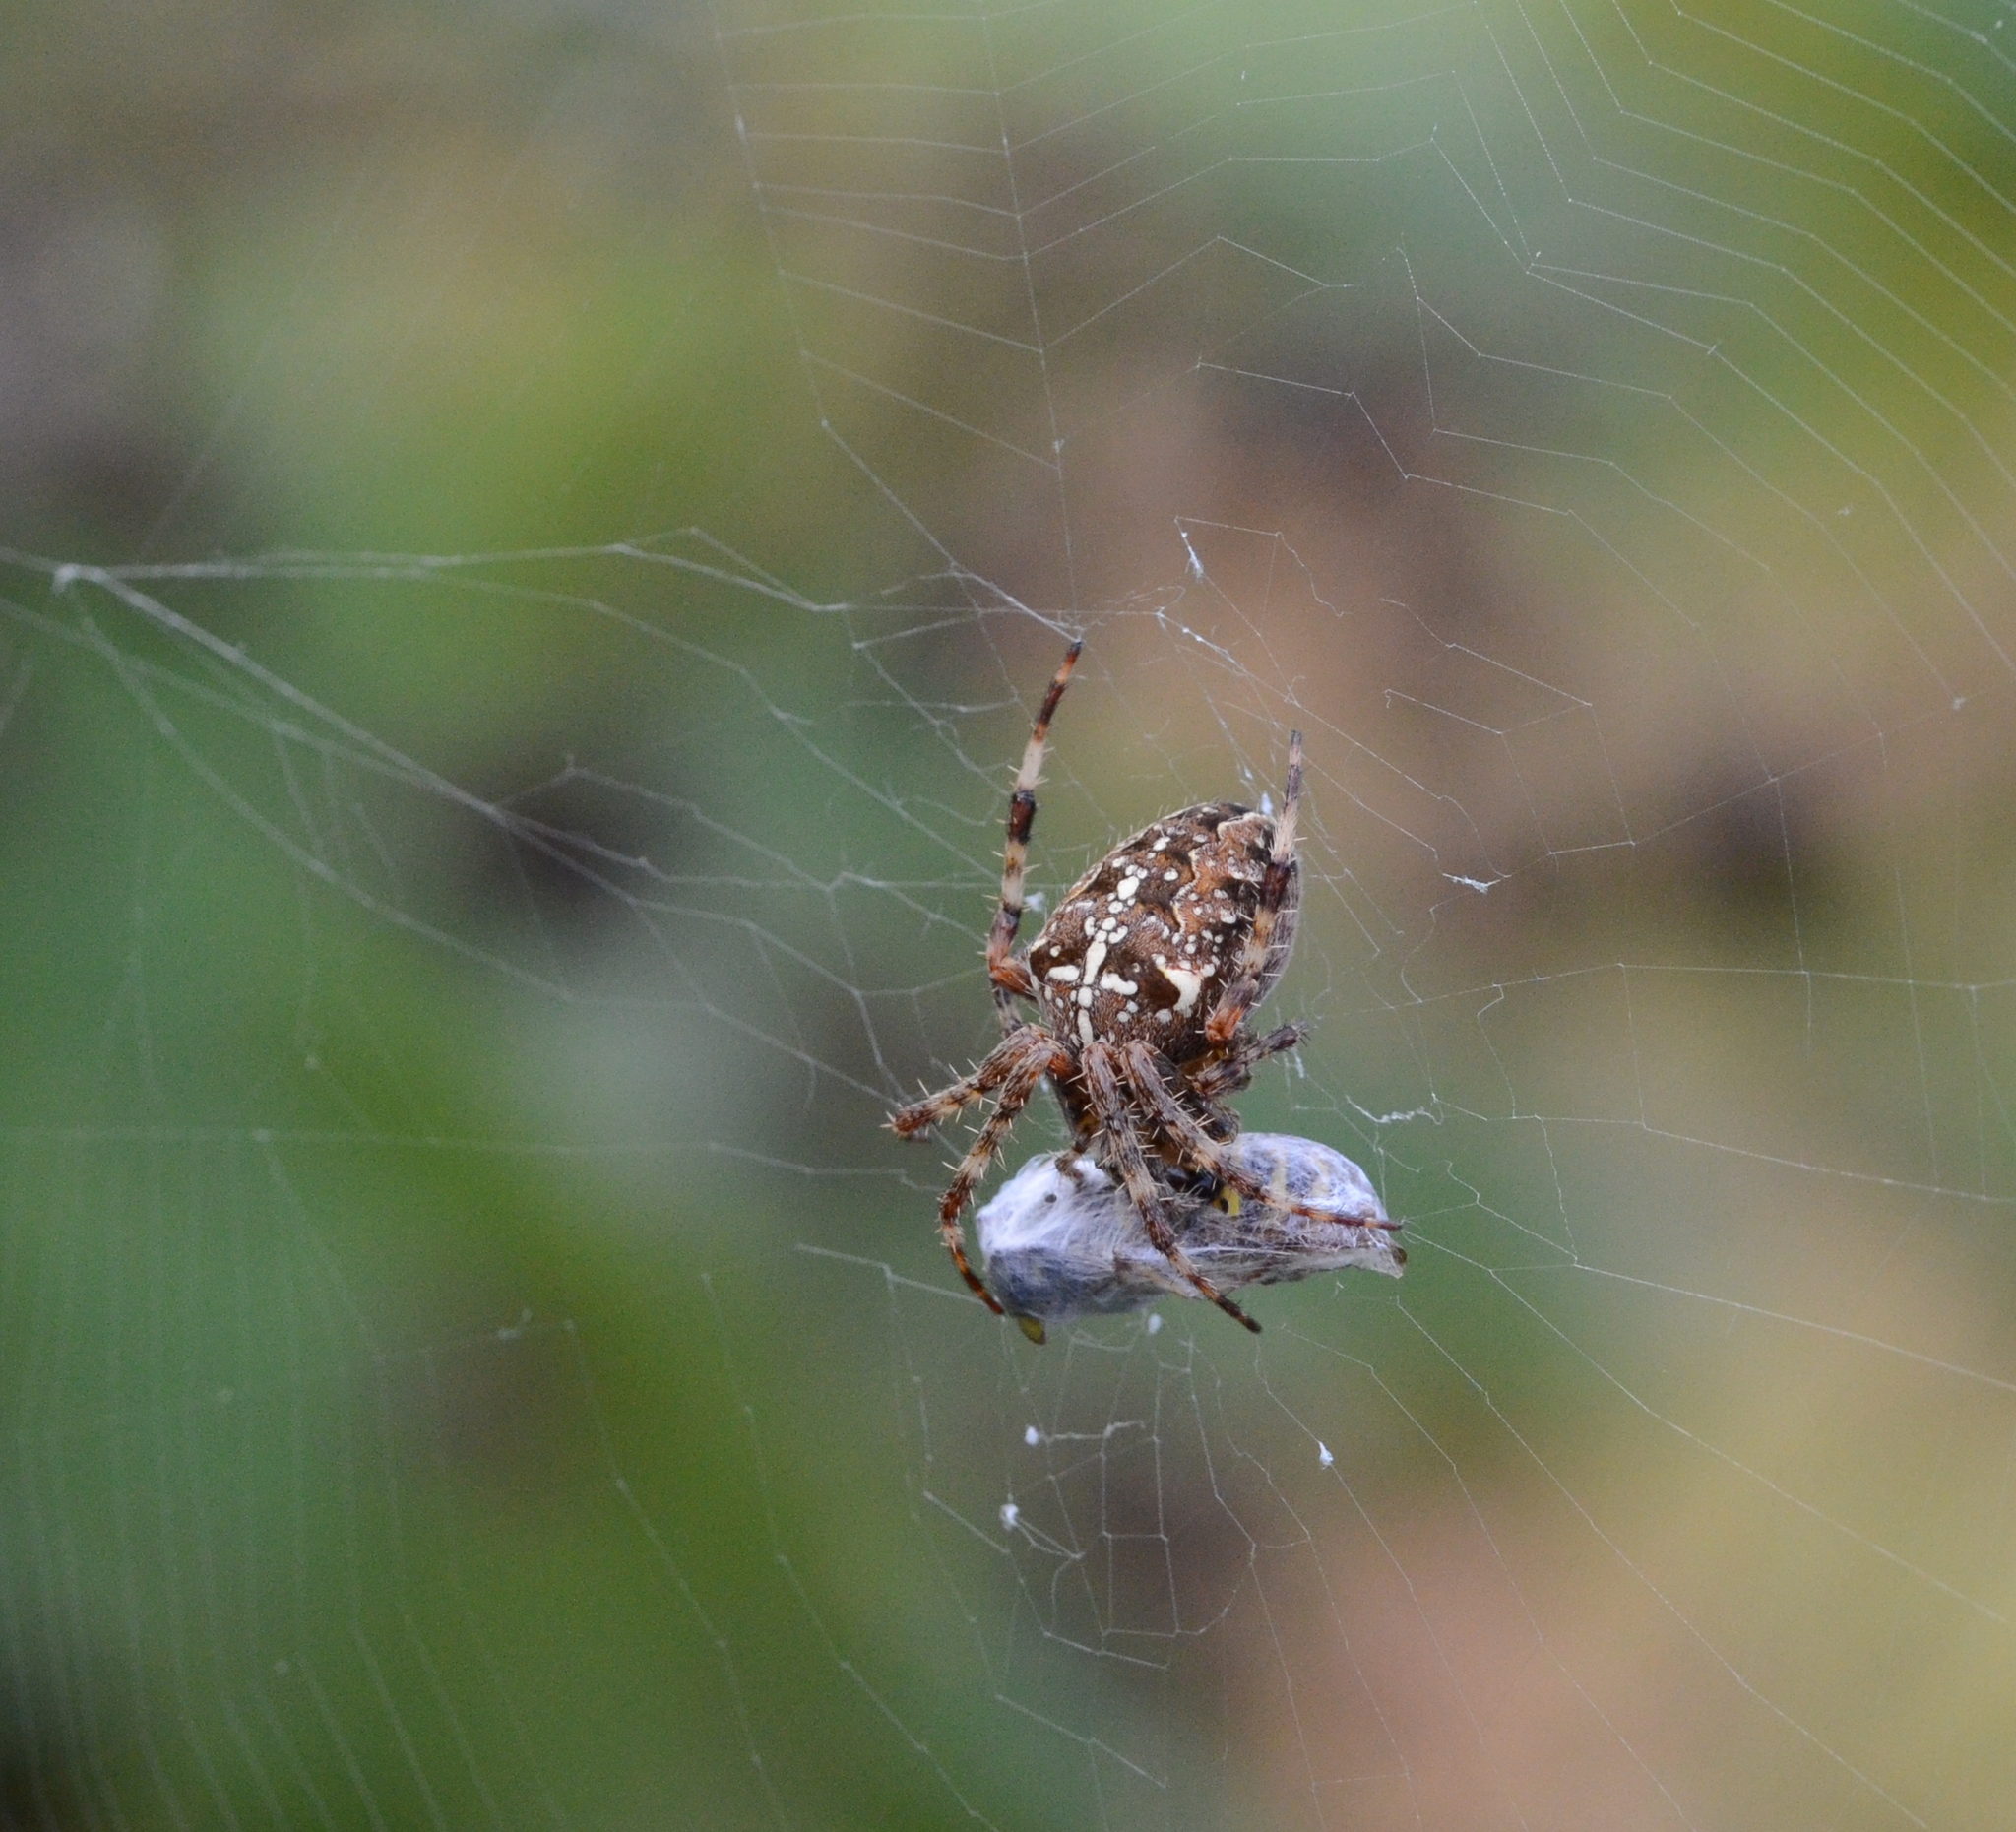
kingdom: Animalia
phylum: Arthropoda
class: Arachnida
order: Araneae
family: Araneidae
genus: Araneus
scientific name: Araneus diadematus
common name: Cross orbweaver
